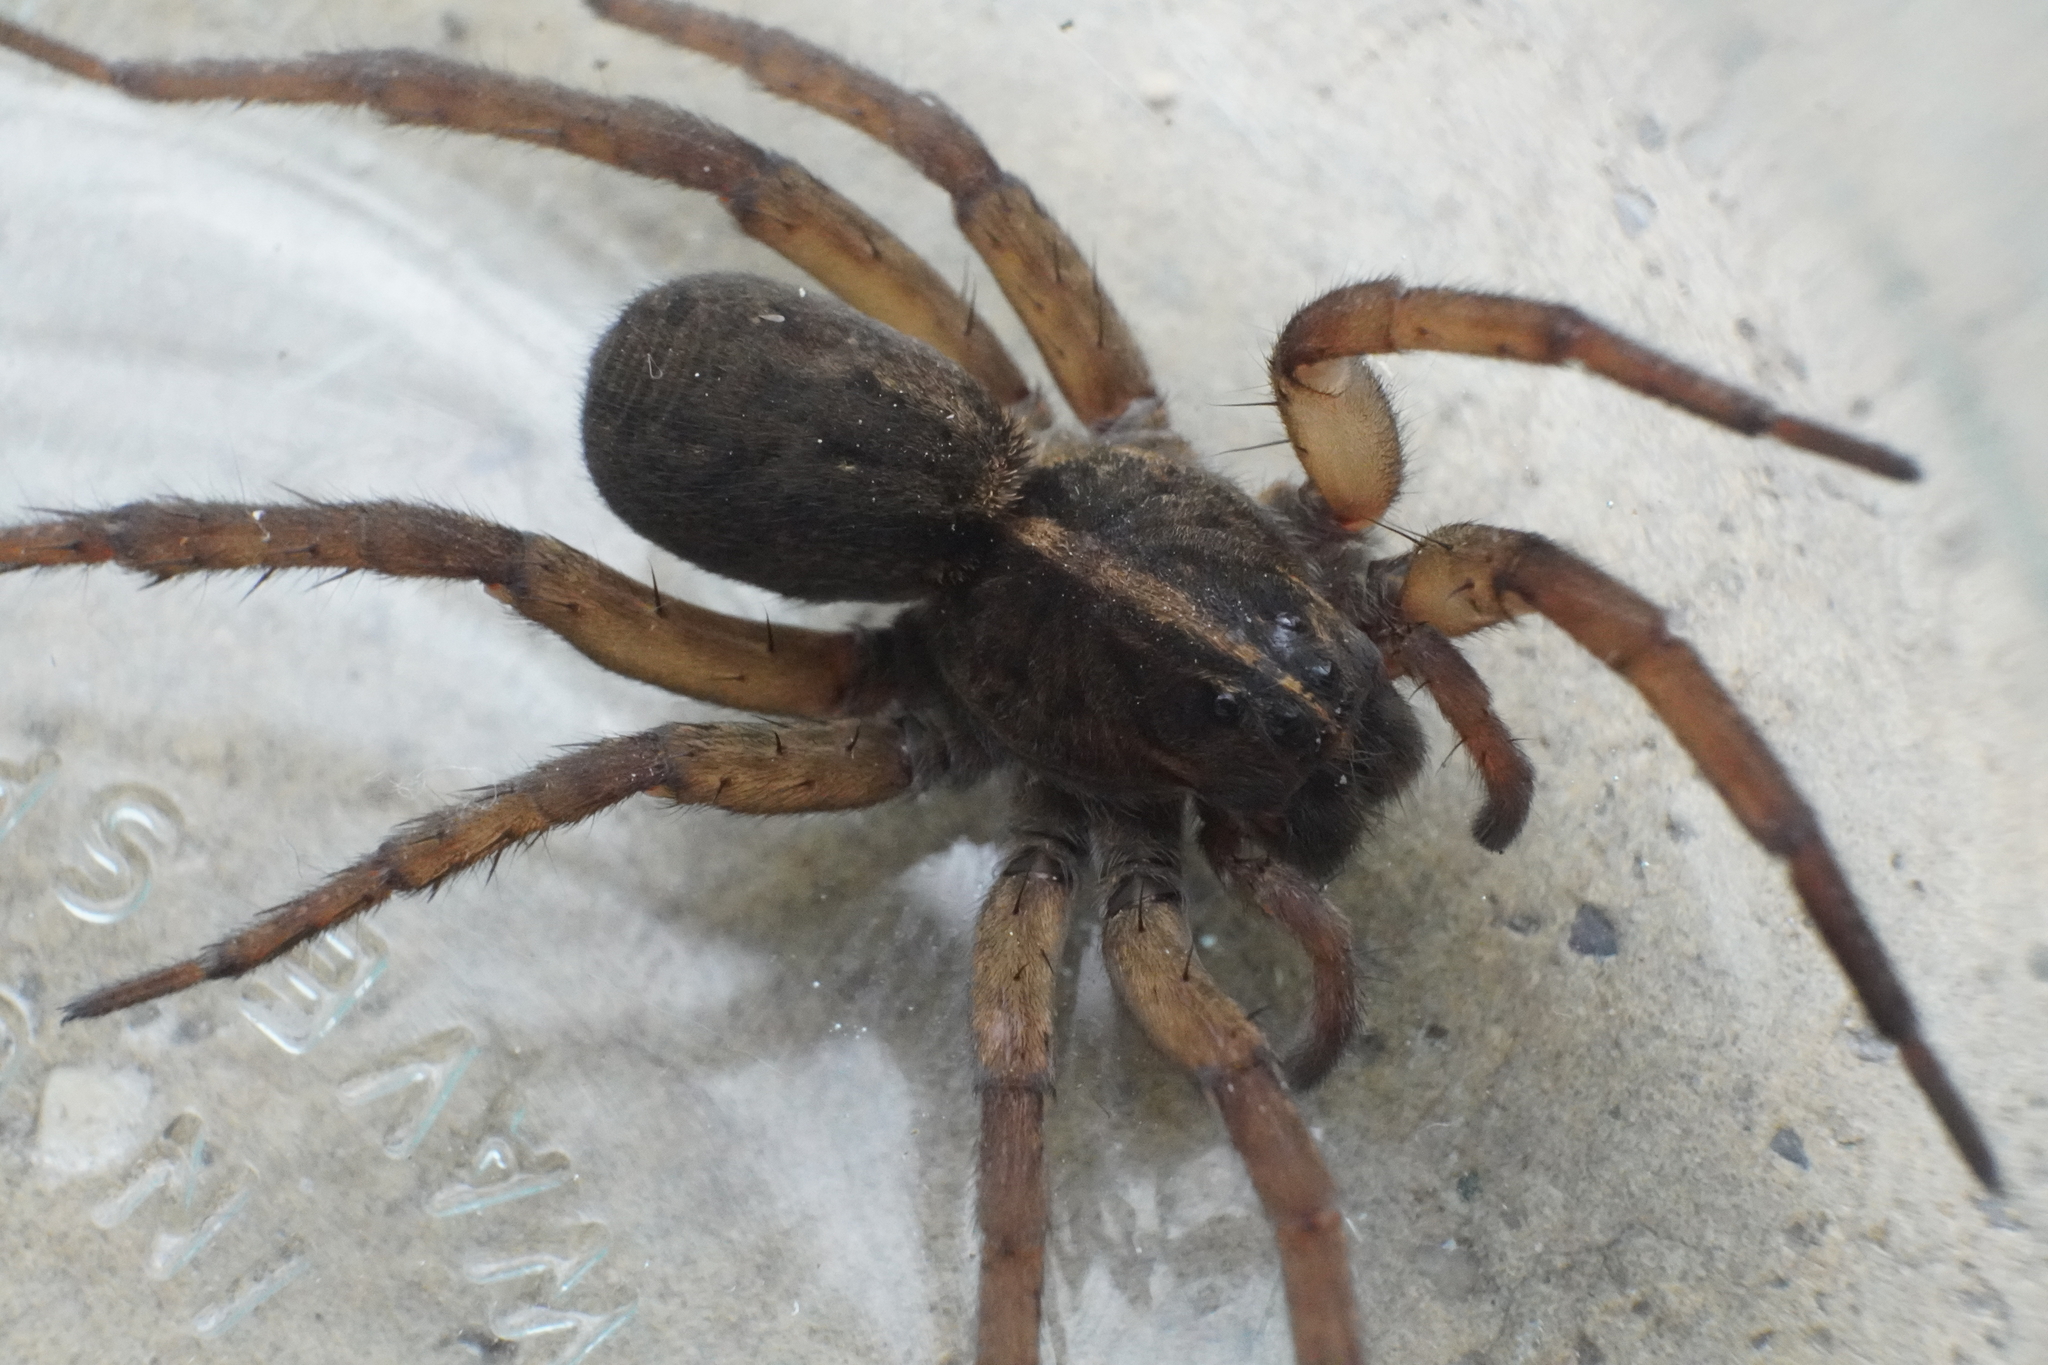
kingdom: Animalia
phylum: Arthropoda
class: Arachnida
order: Araneae
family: Lycosidae
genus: Tigrosa
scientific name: Tigrosa helluo
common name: Wetland giant wolf spider
